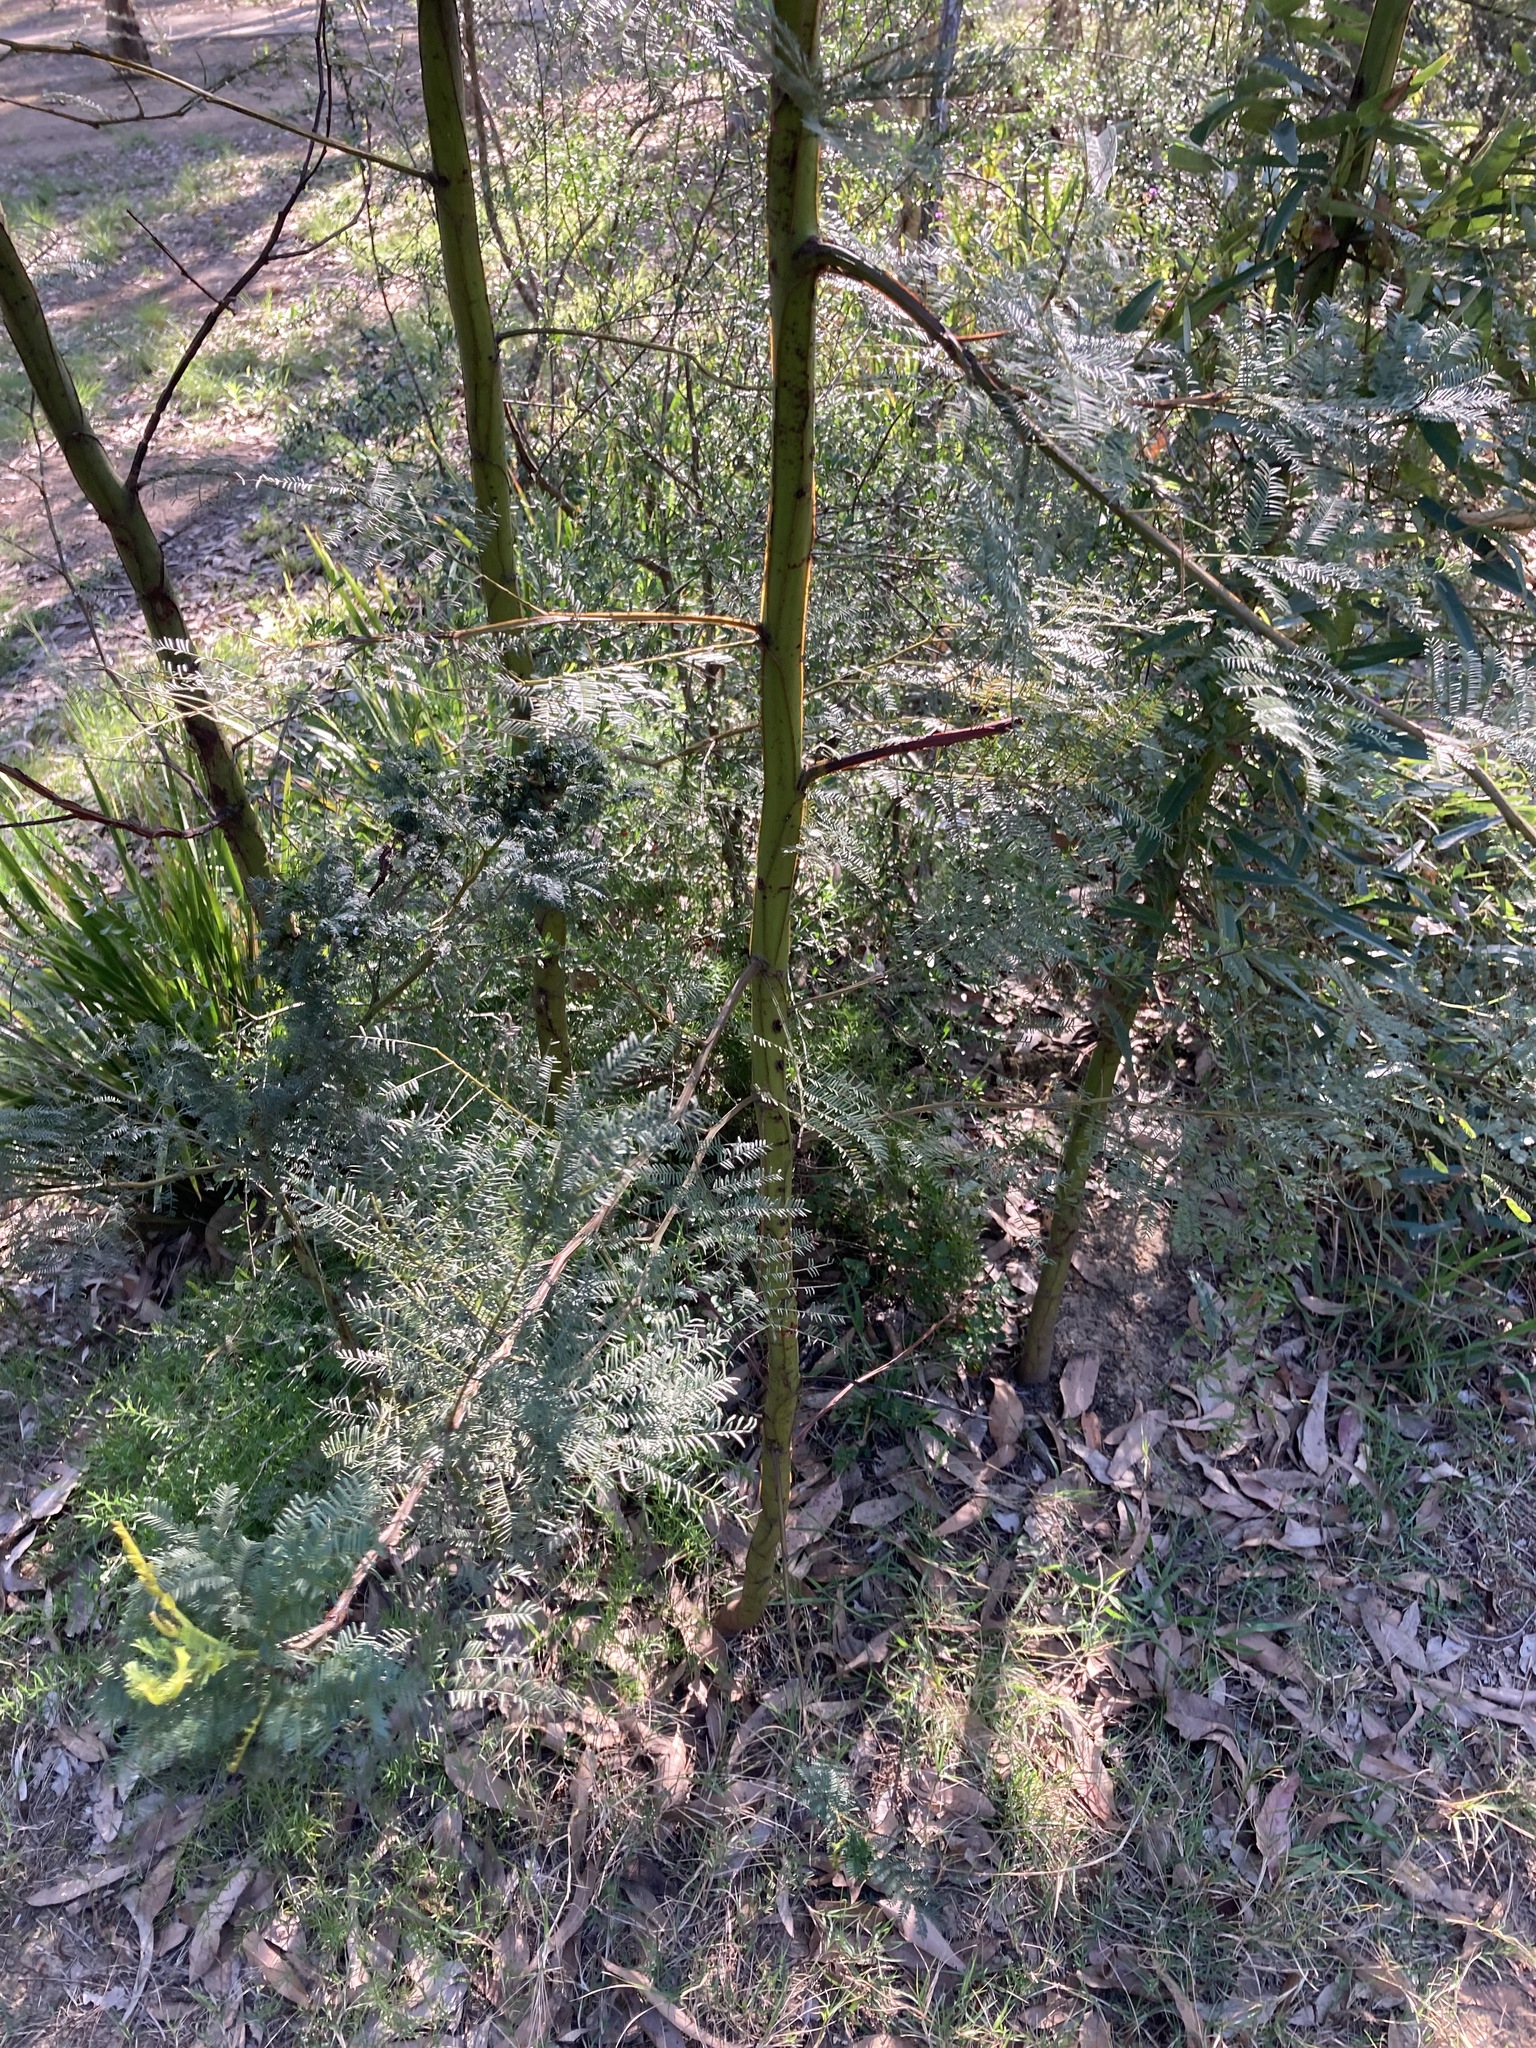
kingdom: Plantae
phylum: Tracheophyta
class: Magnoliopsida
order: Fabales
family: Fabaceae
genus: Acacia
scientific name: Acacia decurrens
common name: Green wattle
